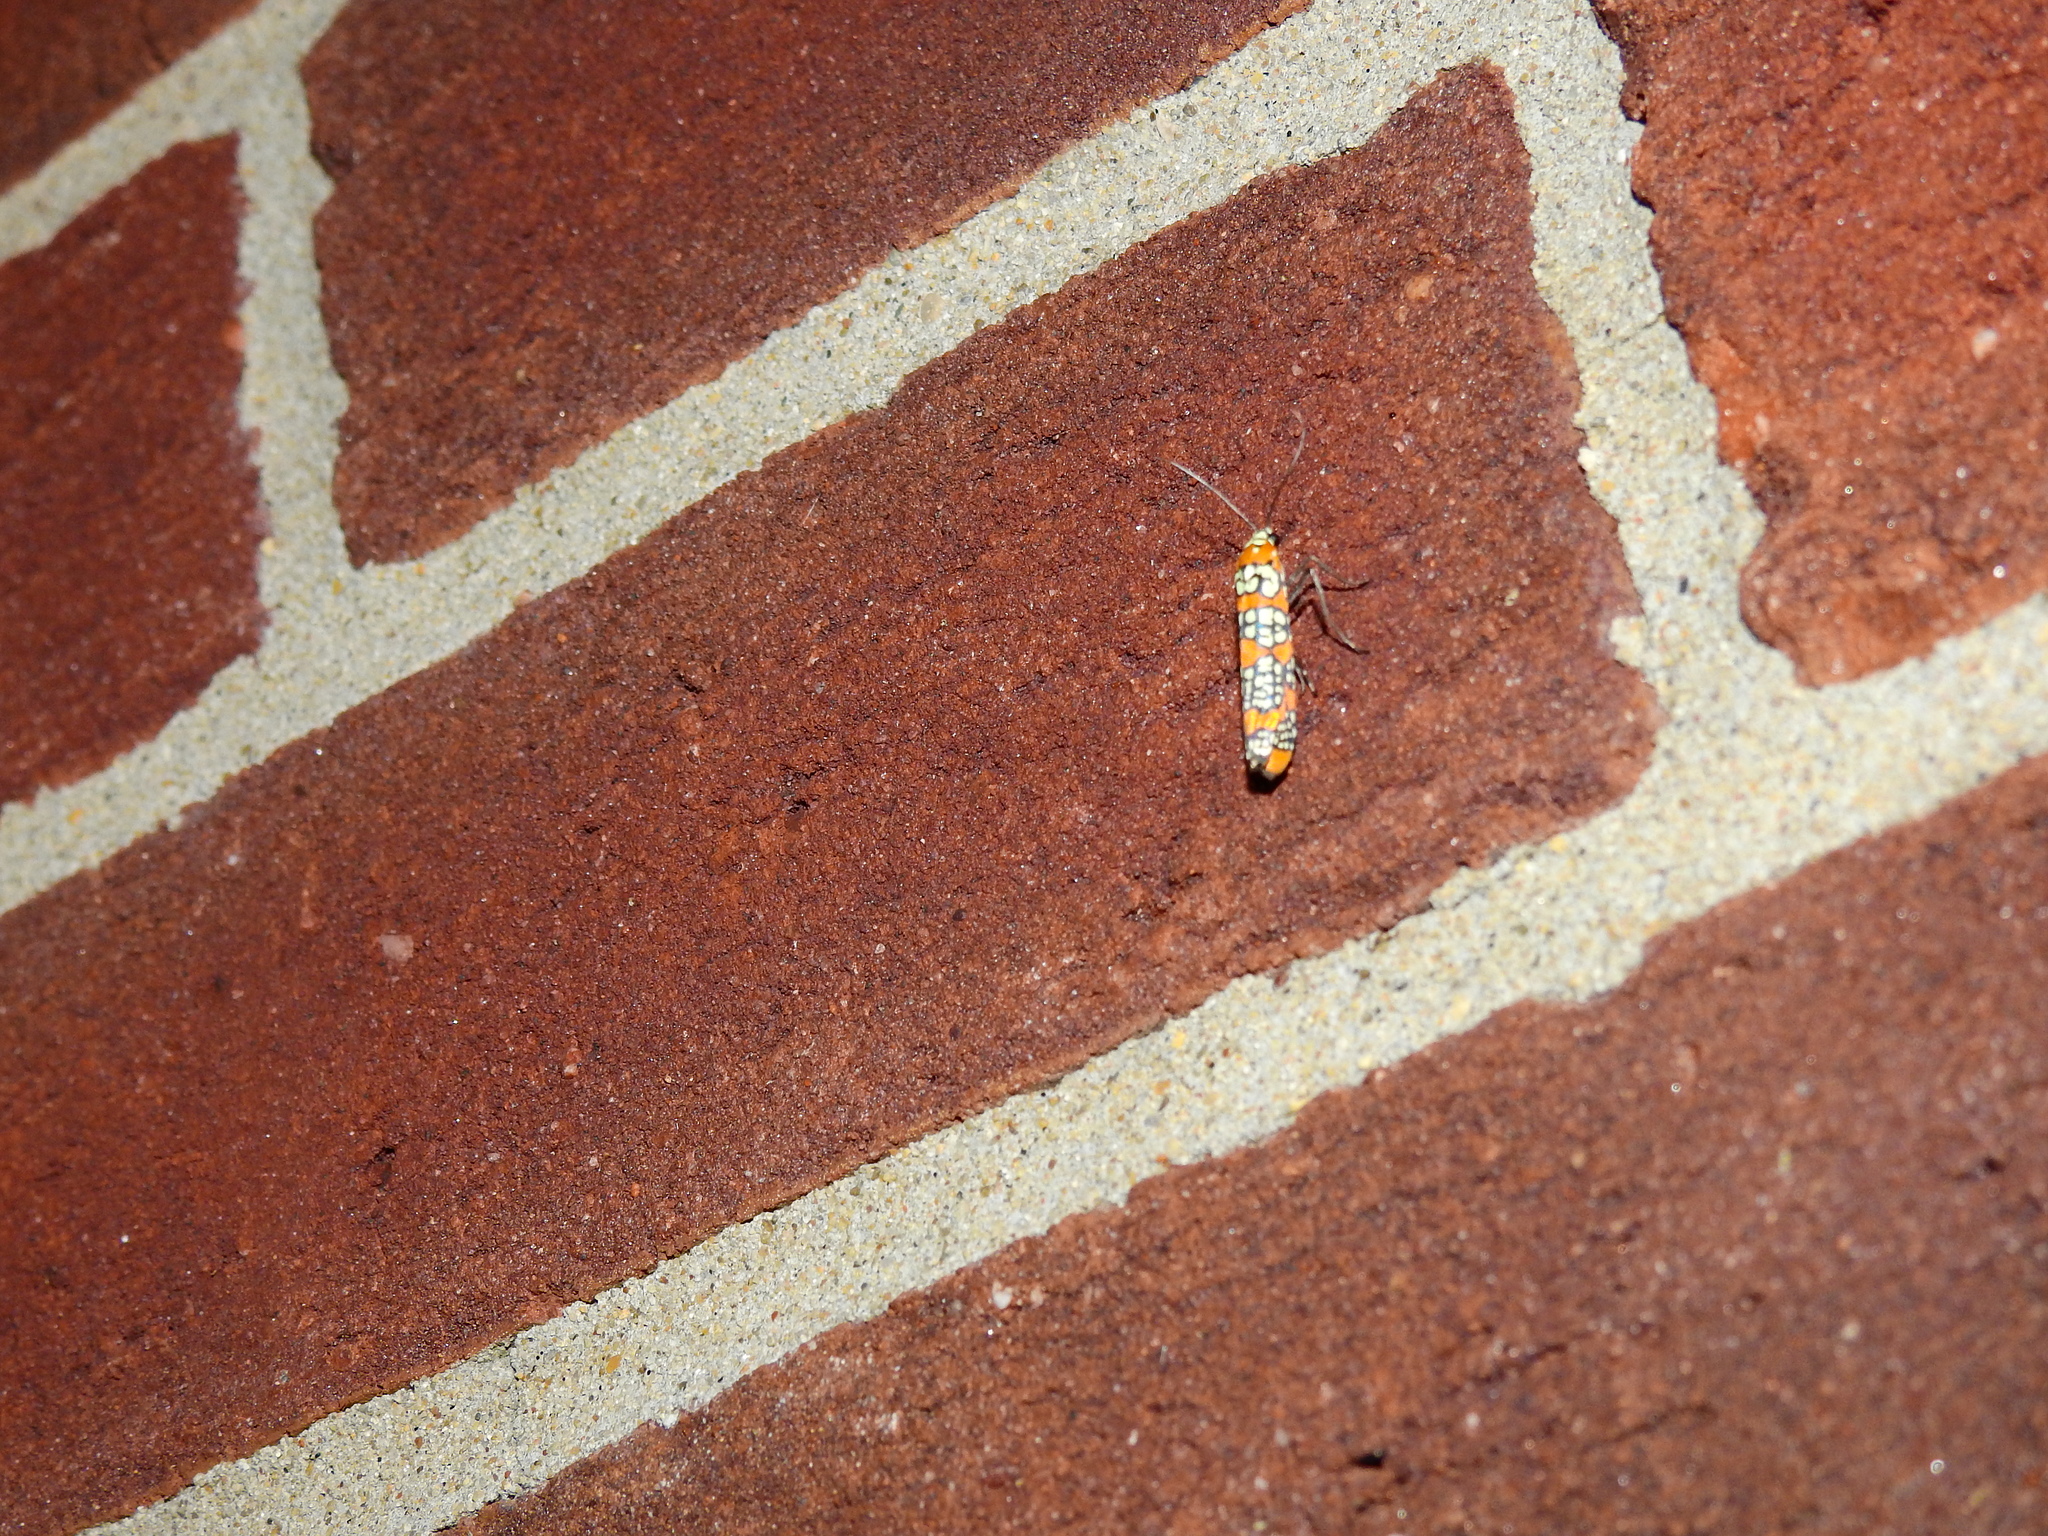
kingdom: Animalia
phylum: Arthropoda
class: Insecta
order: Lepidoptera
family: Attevidae
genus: Atteva
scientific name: Atteva punctella
